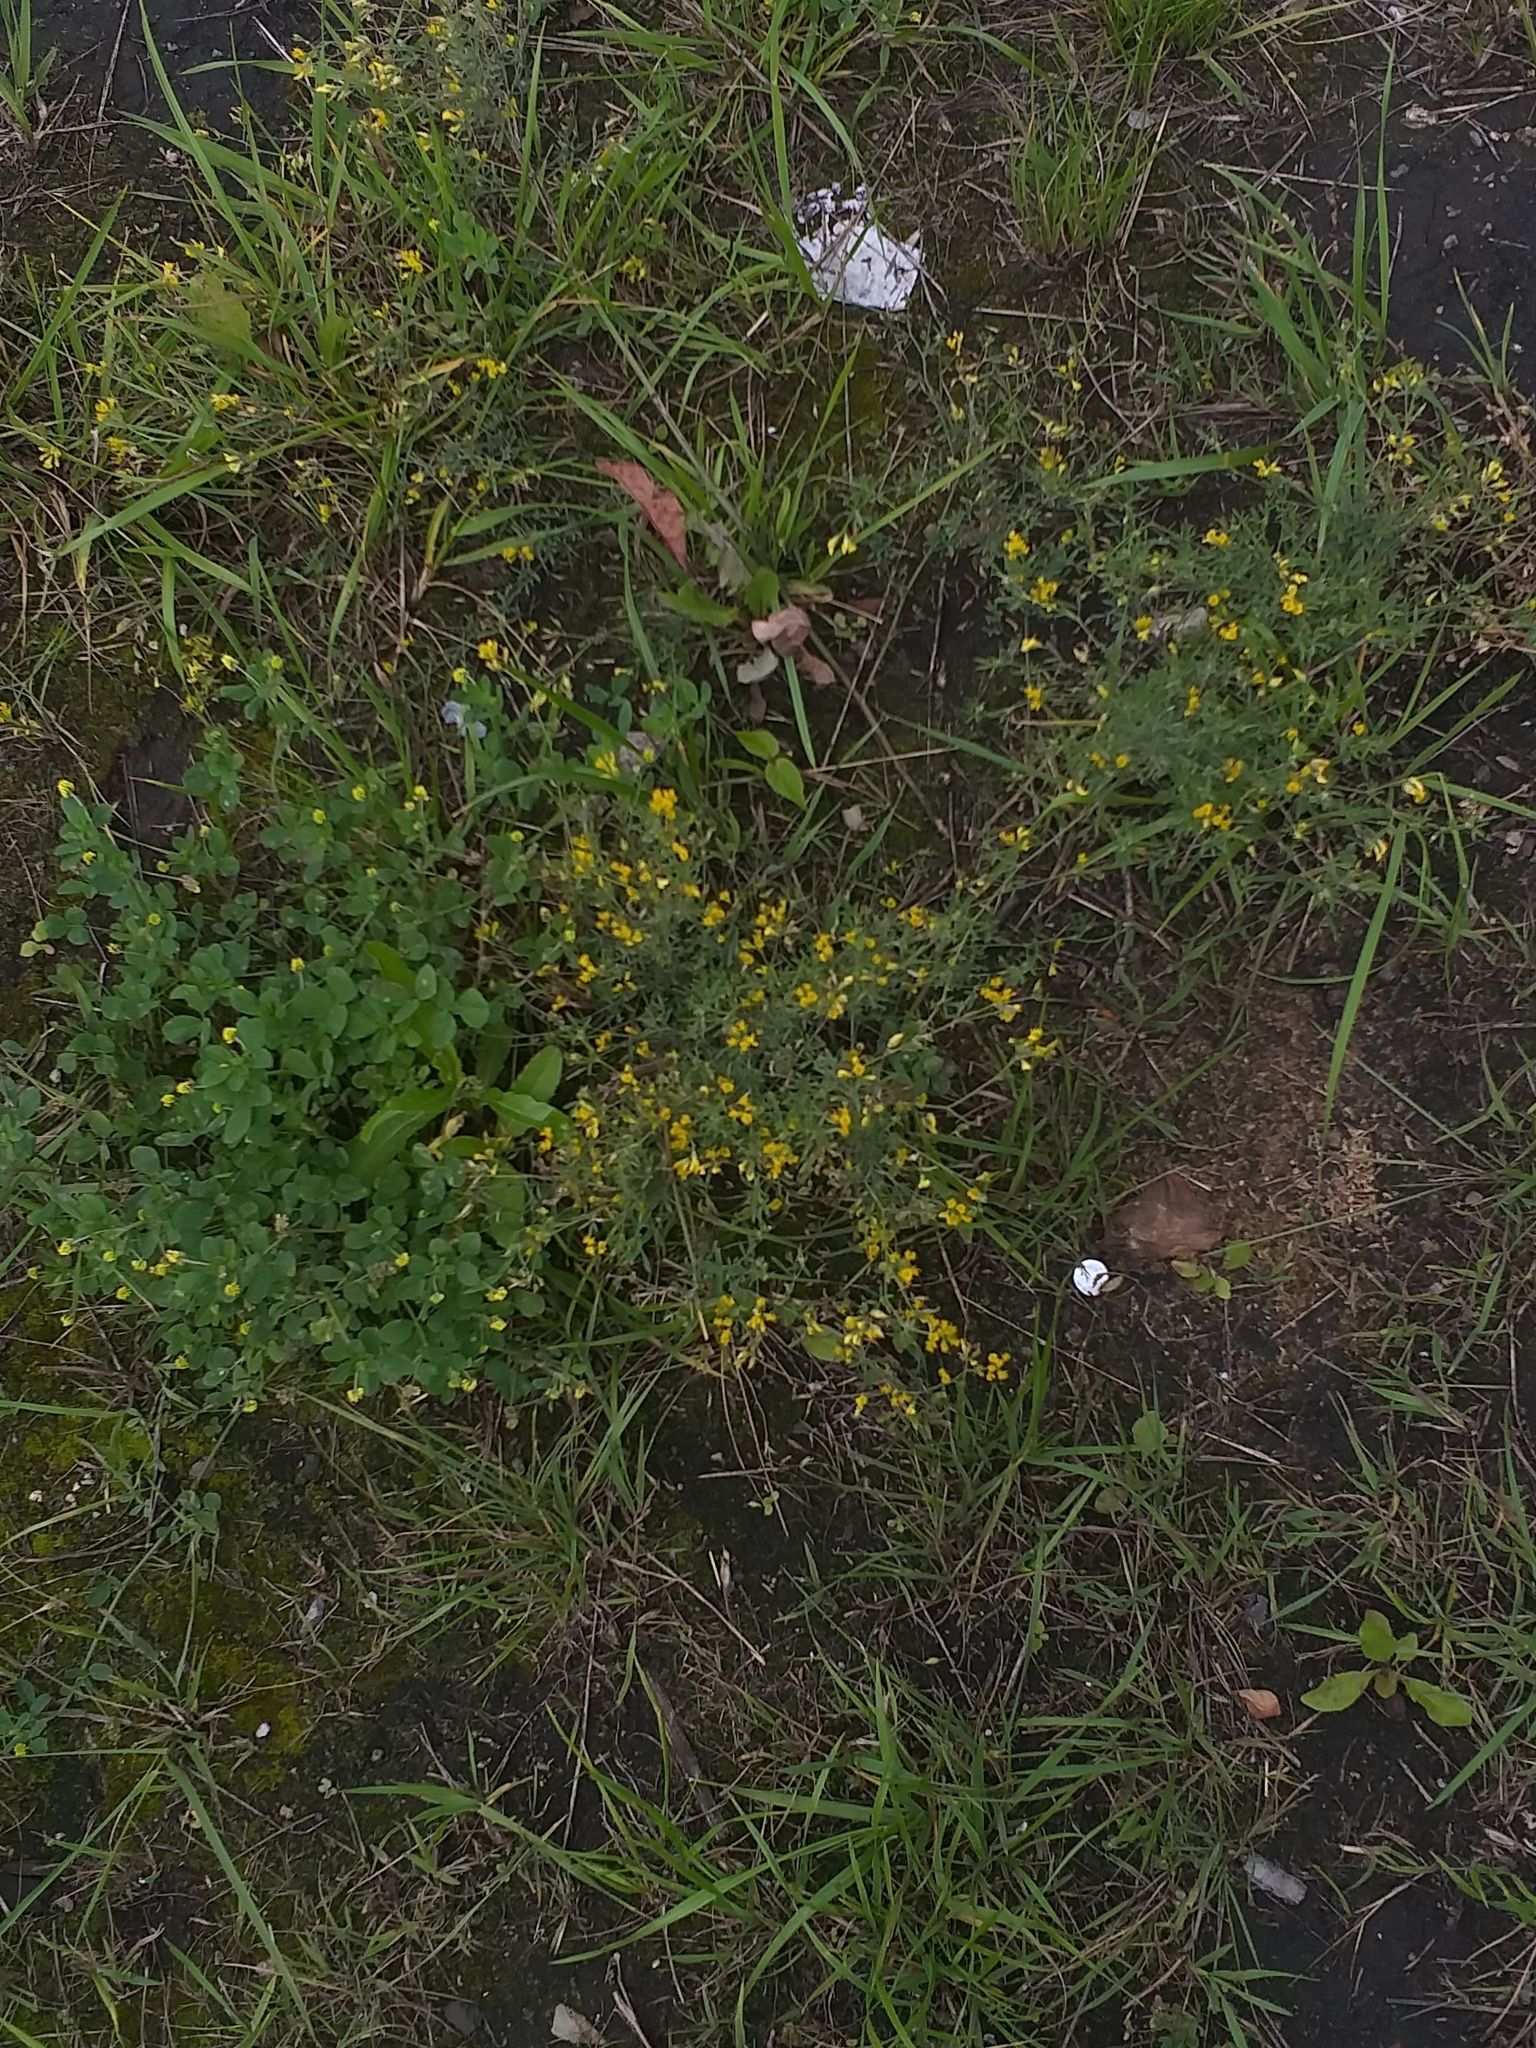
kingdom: Plantae
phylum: Tracheophyta
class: Magnoliopsida
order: Fabales
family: Fabaceae
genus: Medicago
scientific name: Medicago falcata
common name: Sickle medick
